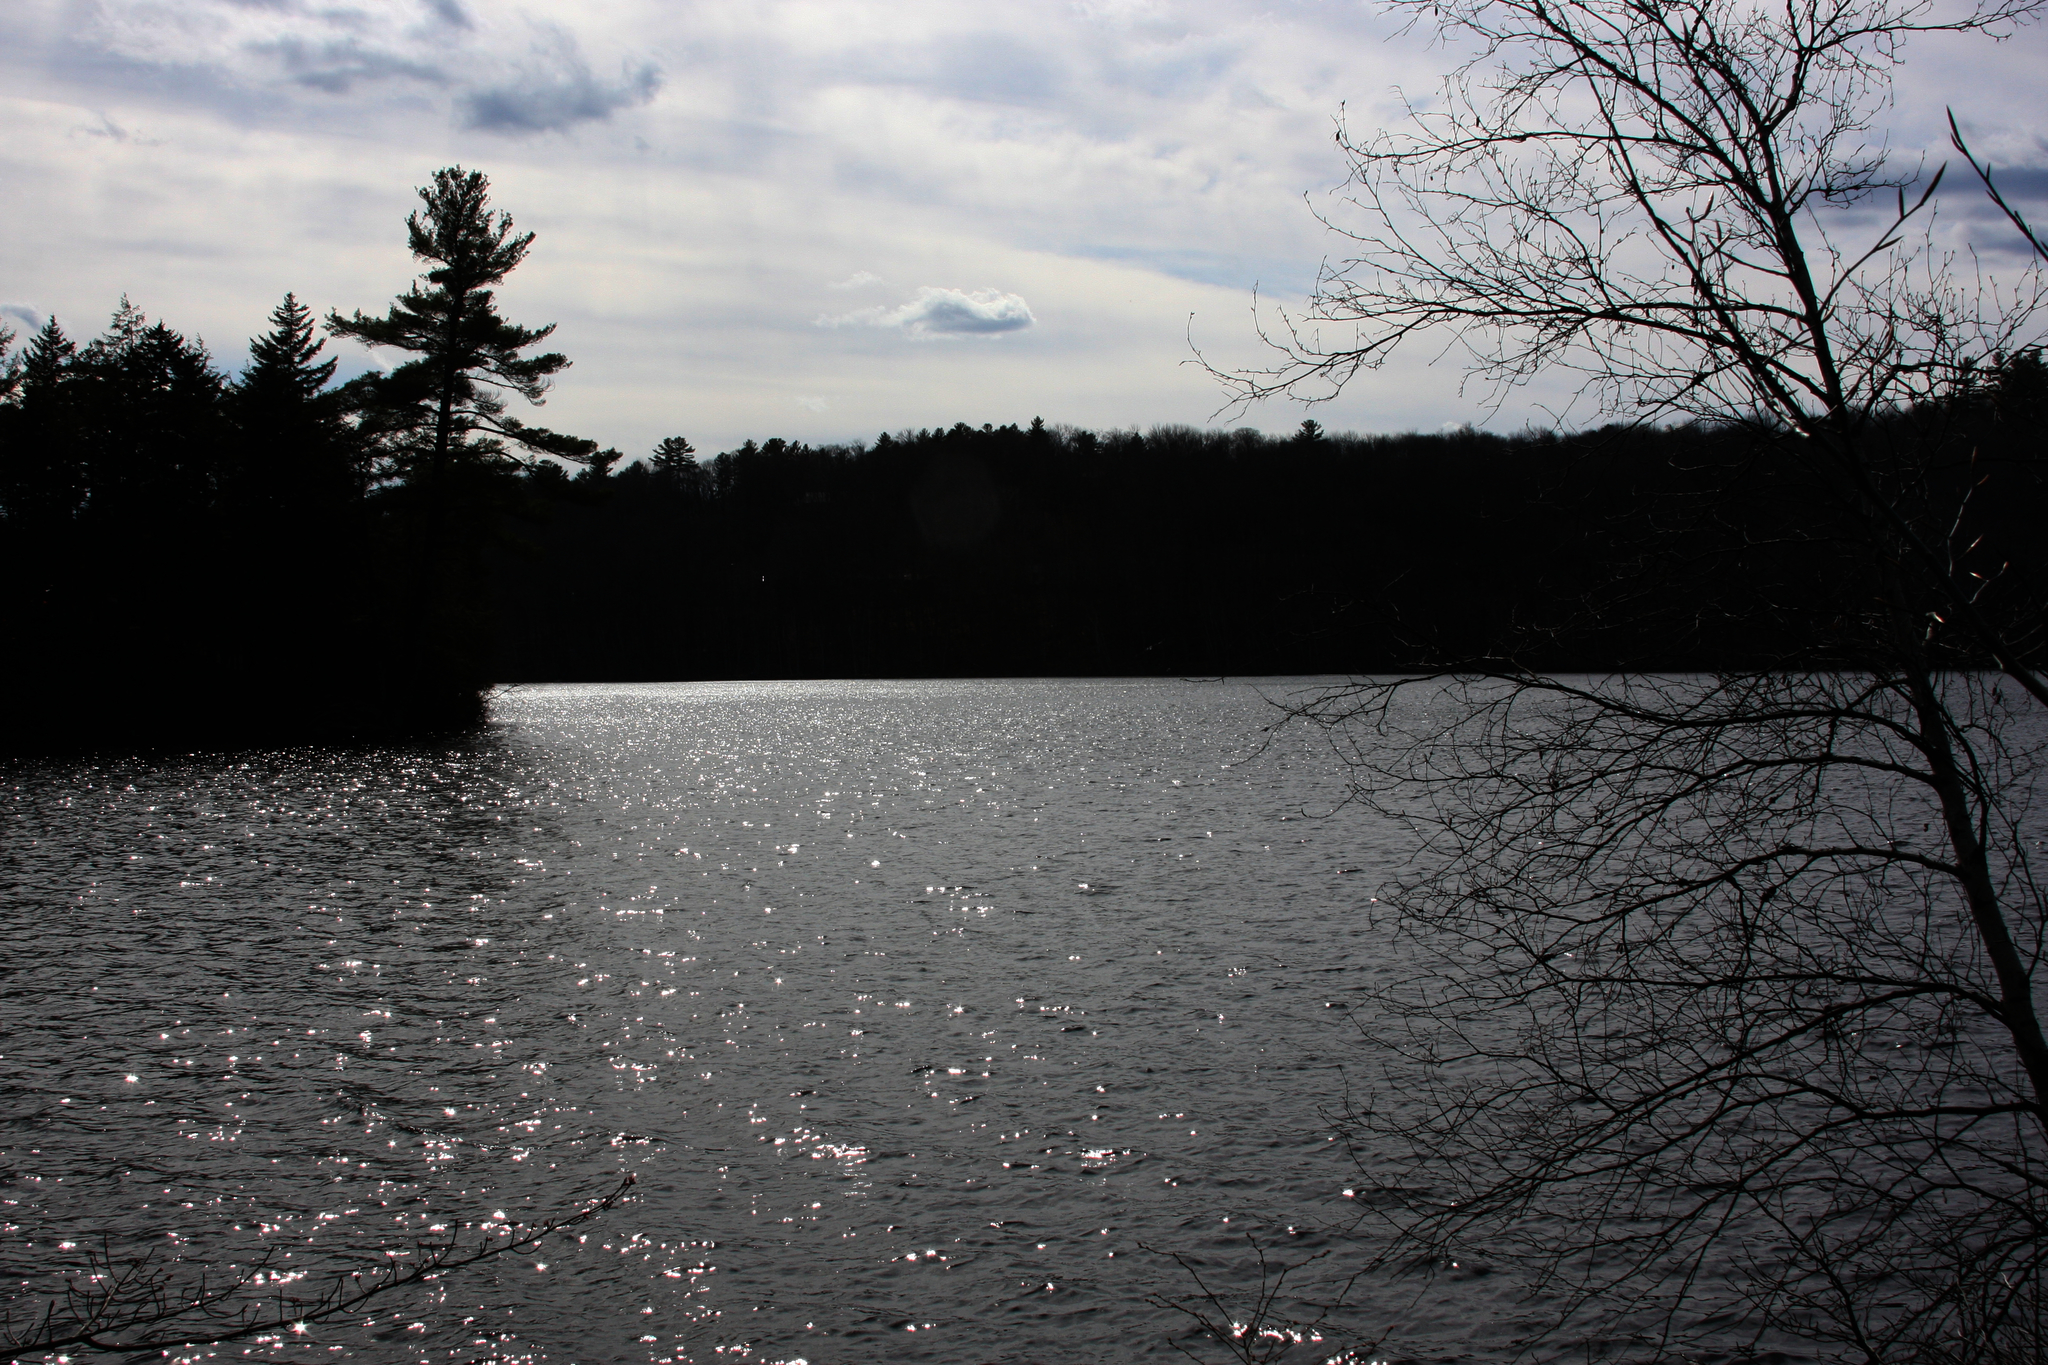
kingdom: Plantae
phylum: Tracheophyta
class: Pinopsida
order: Pinales
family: Pinaceae
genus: Pinus
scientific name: Pinus strobus
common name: Weymouth pine
